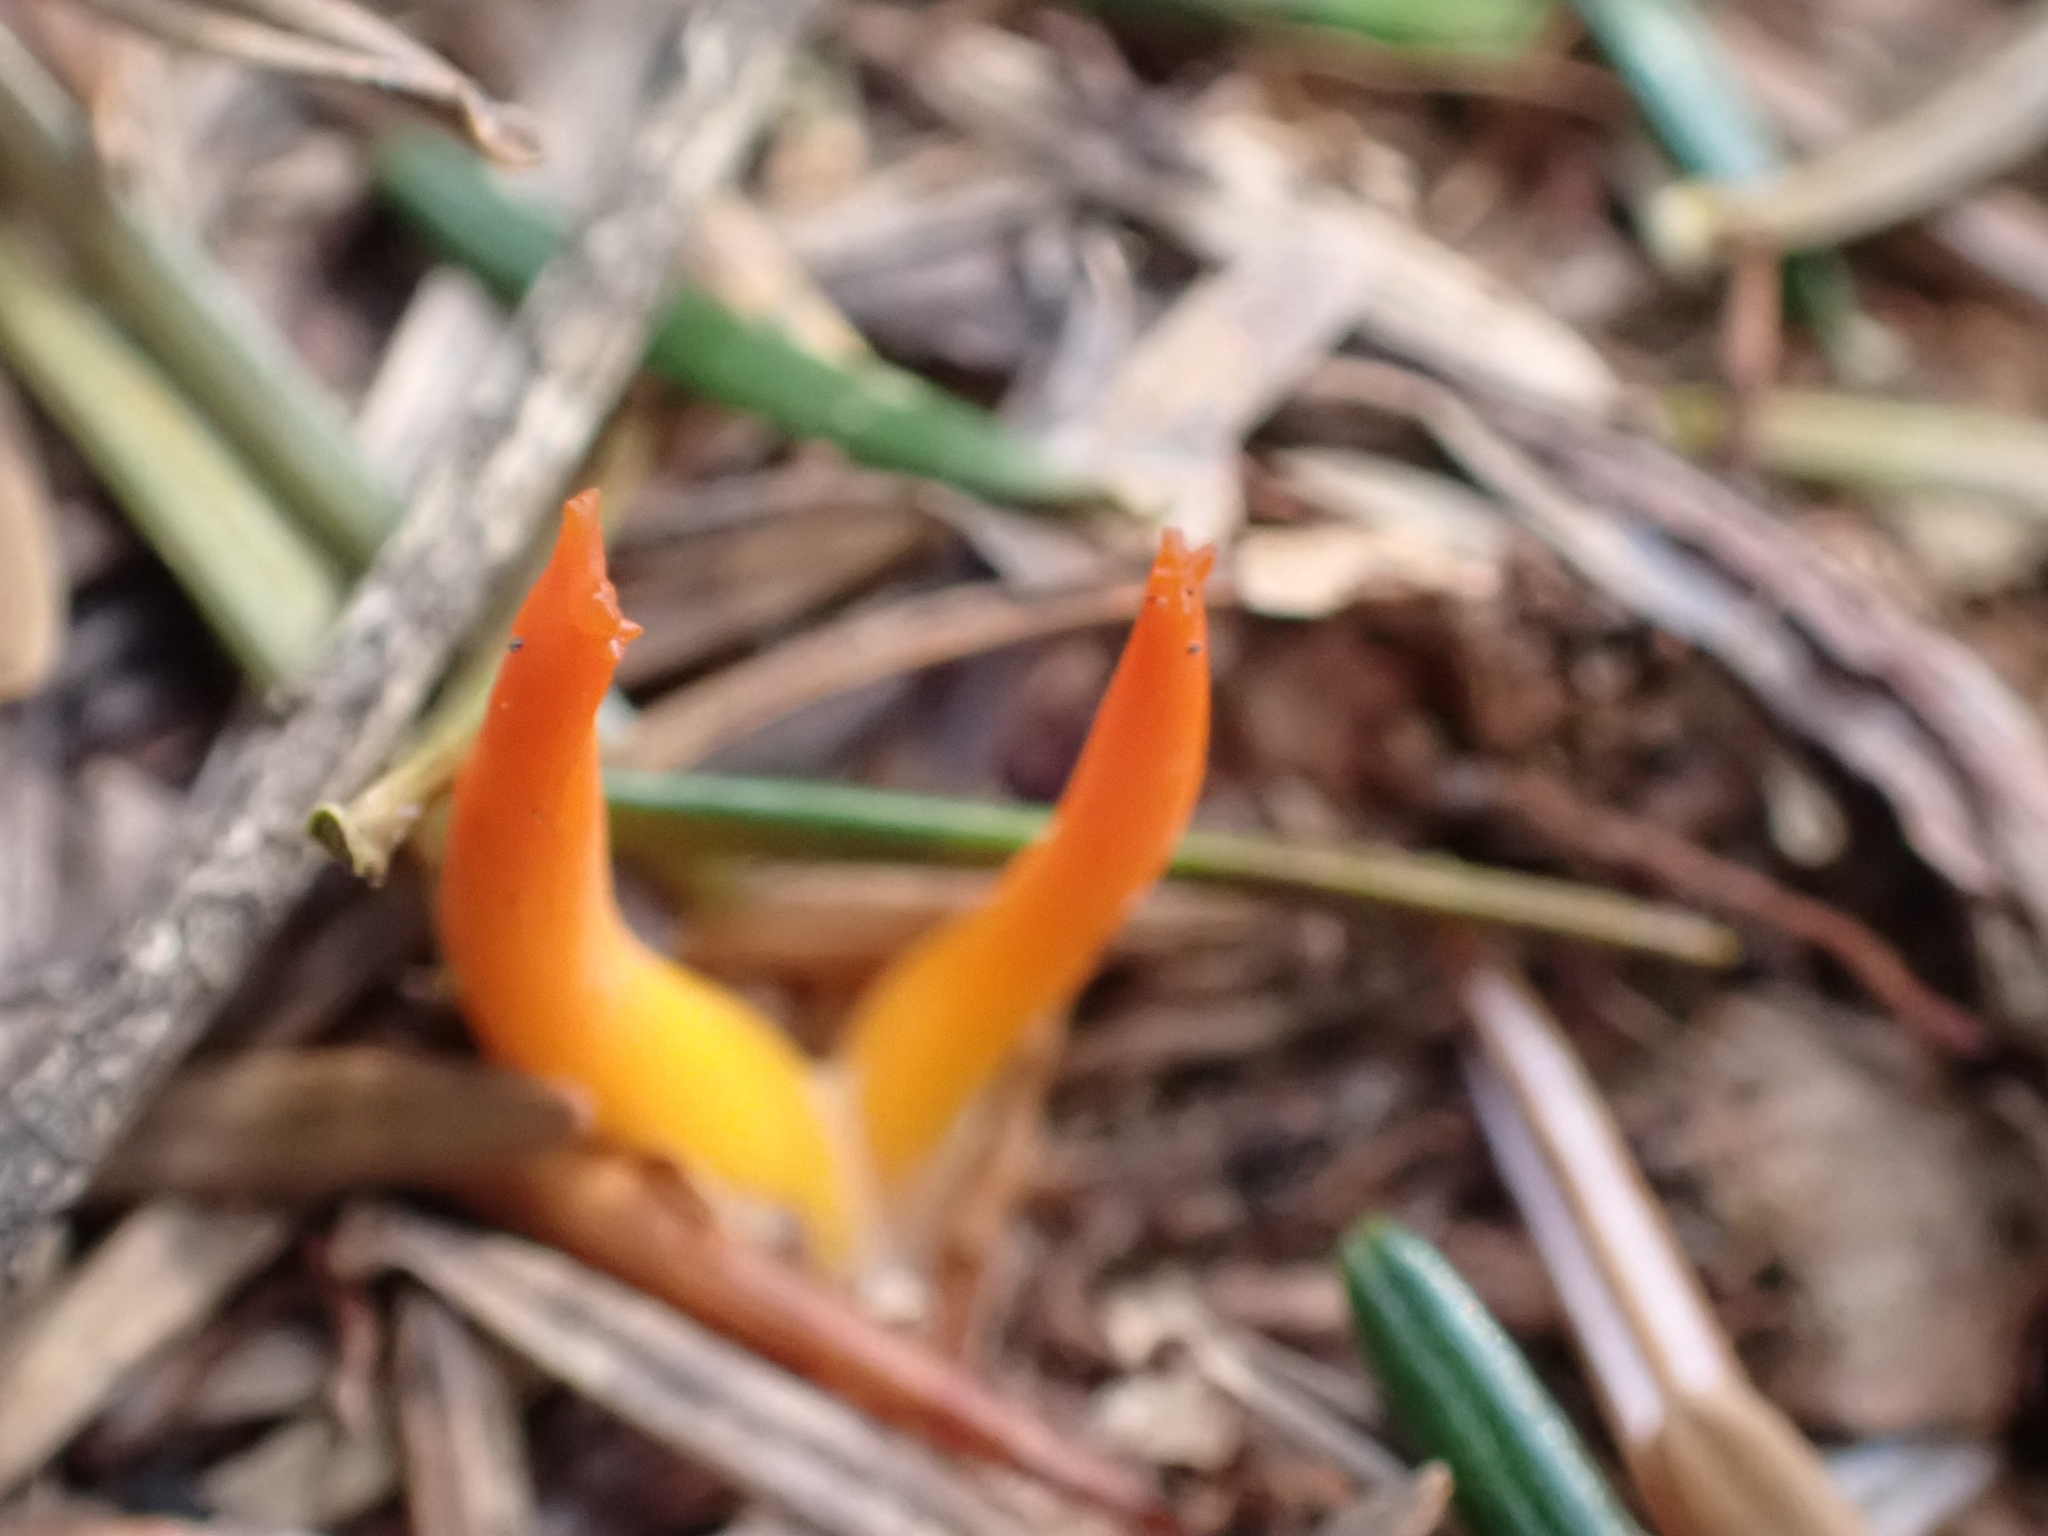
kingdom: Fungi
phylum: Basidiomycota
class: Dacrymycetes
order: Dacrymycetales
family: Dacrymycetaceae
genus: Calocera
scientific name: Calocera viscosa
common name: Yellow stagshorn
